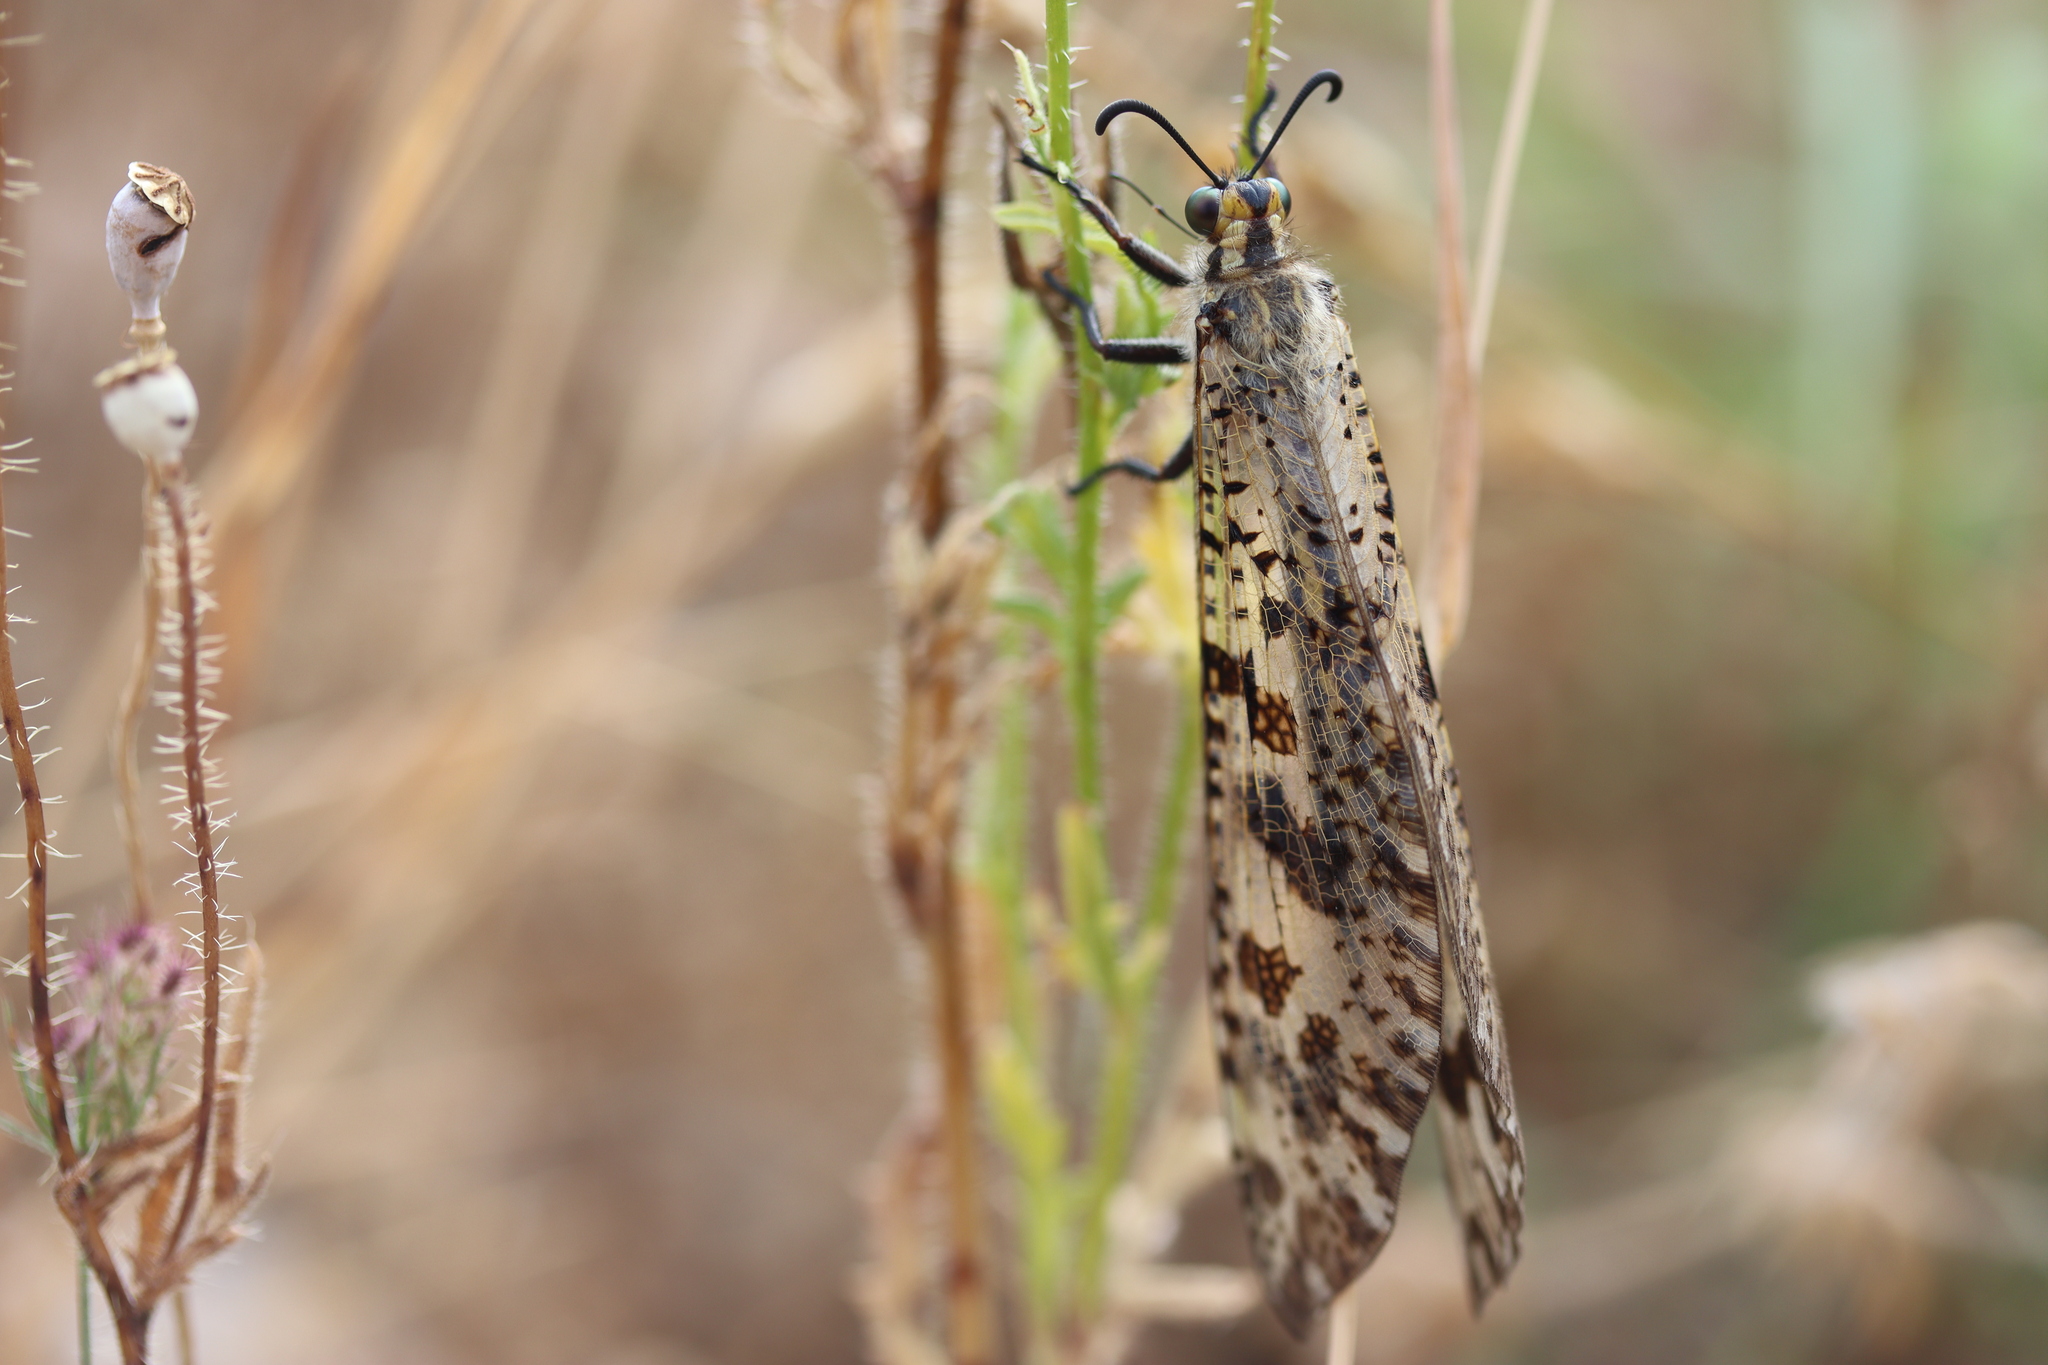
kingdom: Animalia
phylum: Arthropoda
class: Insecta
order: Neuroptera
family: Myrmeleontidae
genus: Palpares
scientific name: Palpares libelluloides
